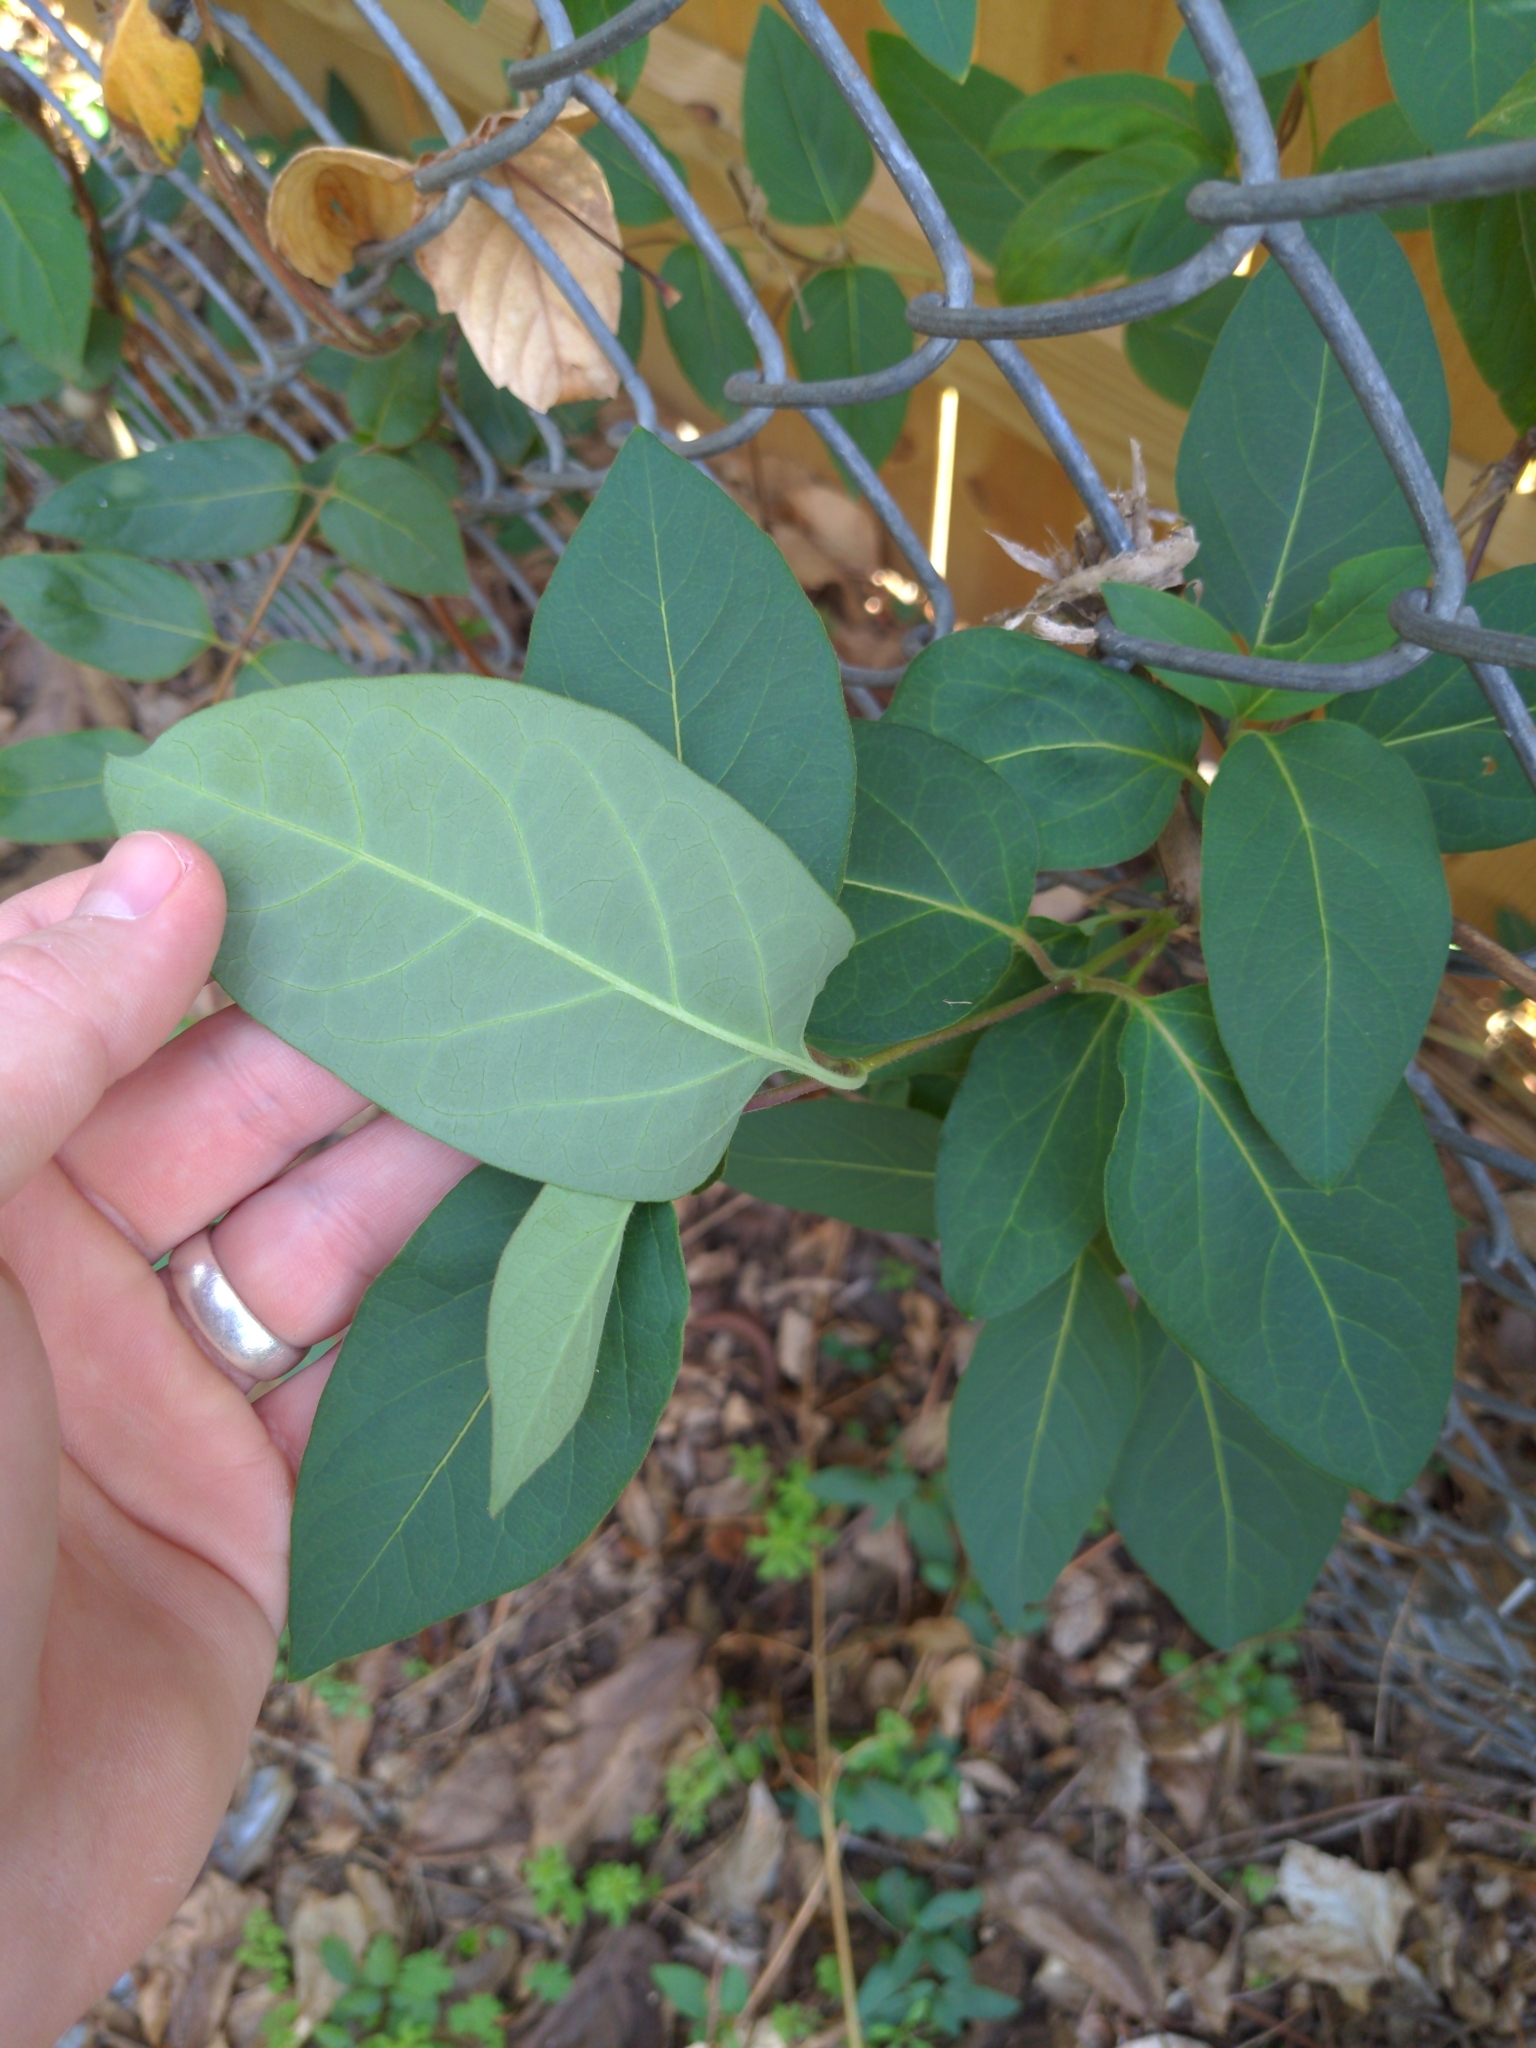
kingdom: Plantae
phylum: Tracheophyta
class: Magnoliopsida
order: Dipsacales
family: Caprifoliaceae
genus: Lonicera
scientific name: Lonicera japonica
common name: Japanese honeysuckle
